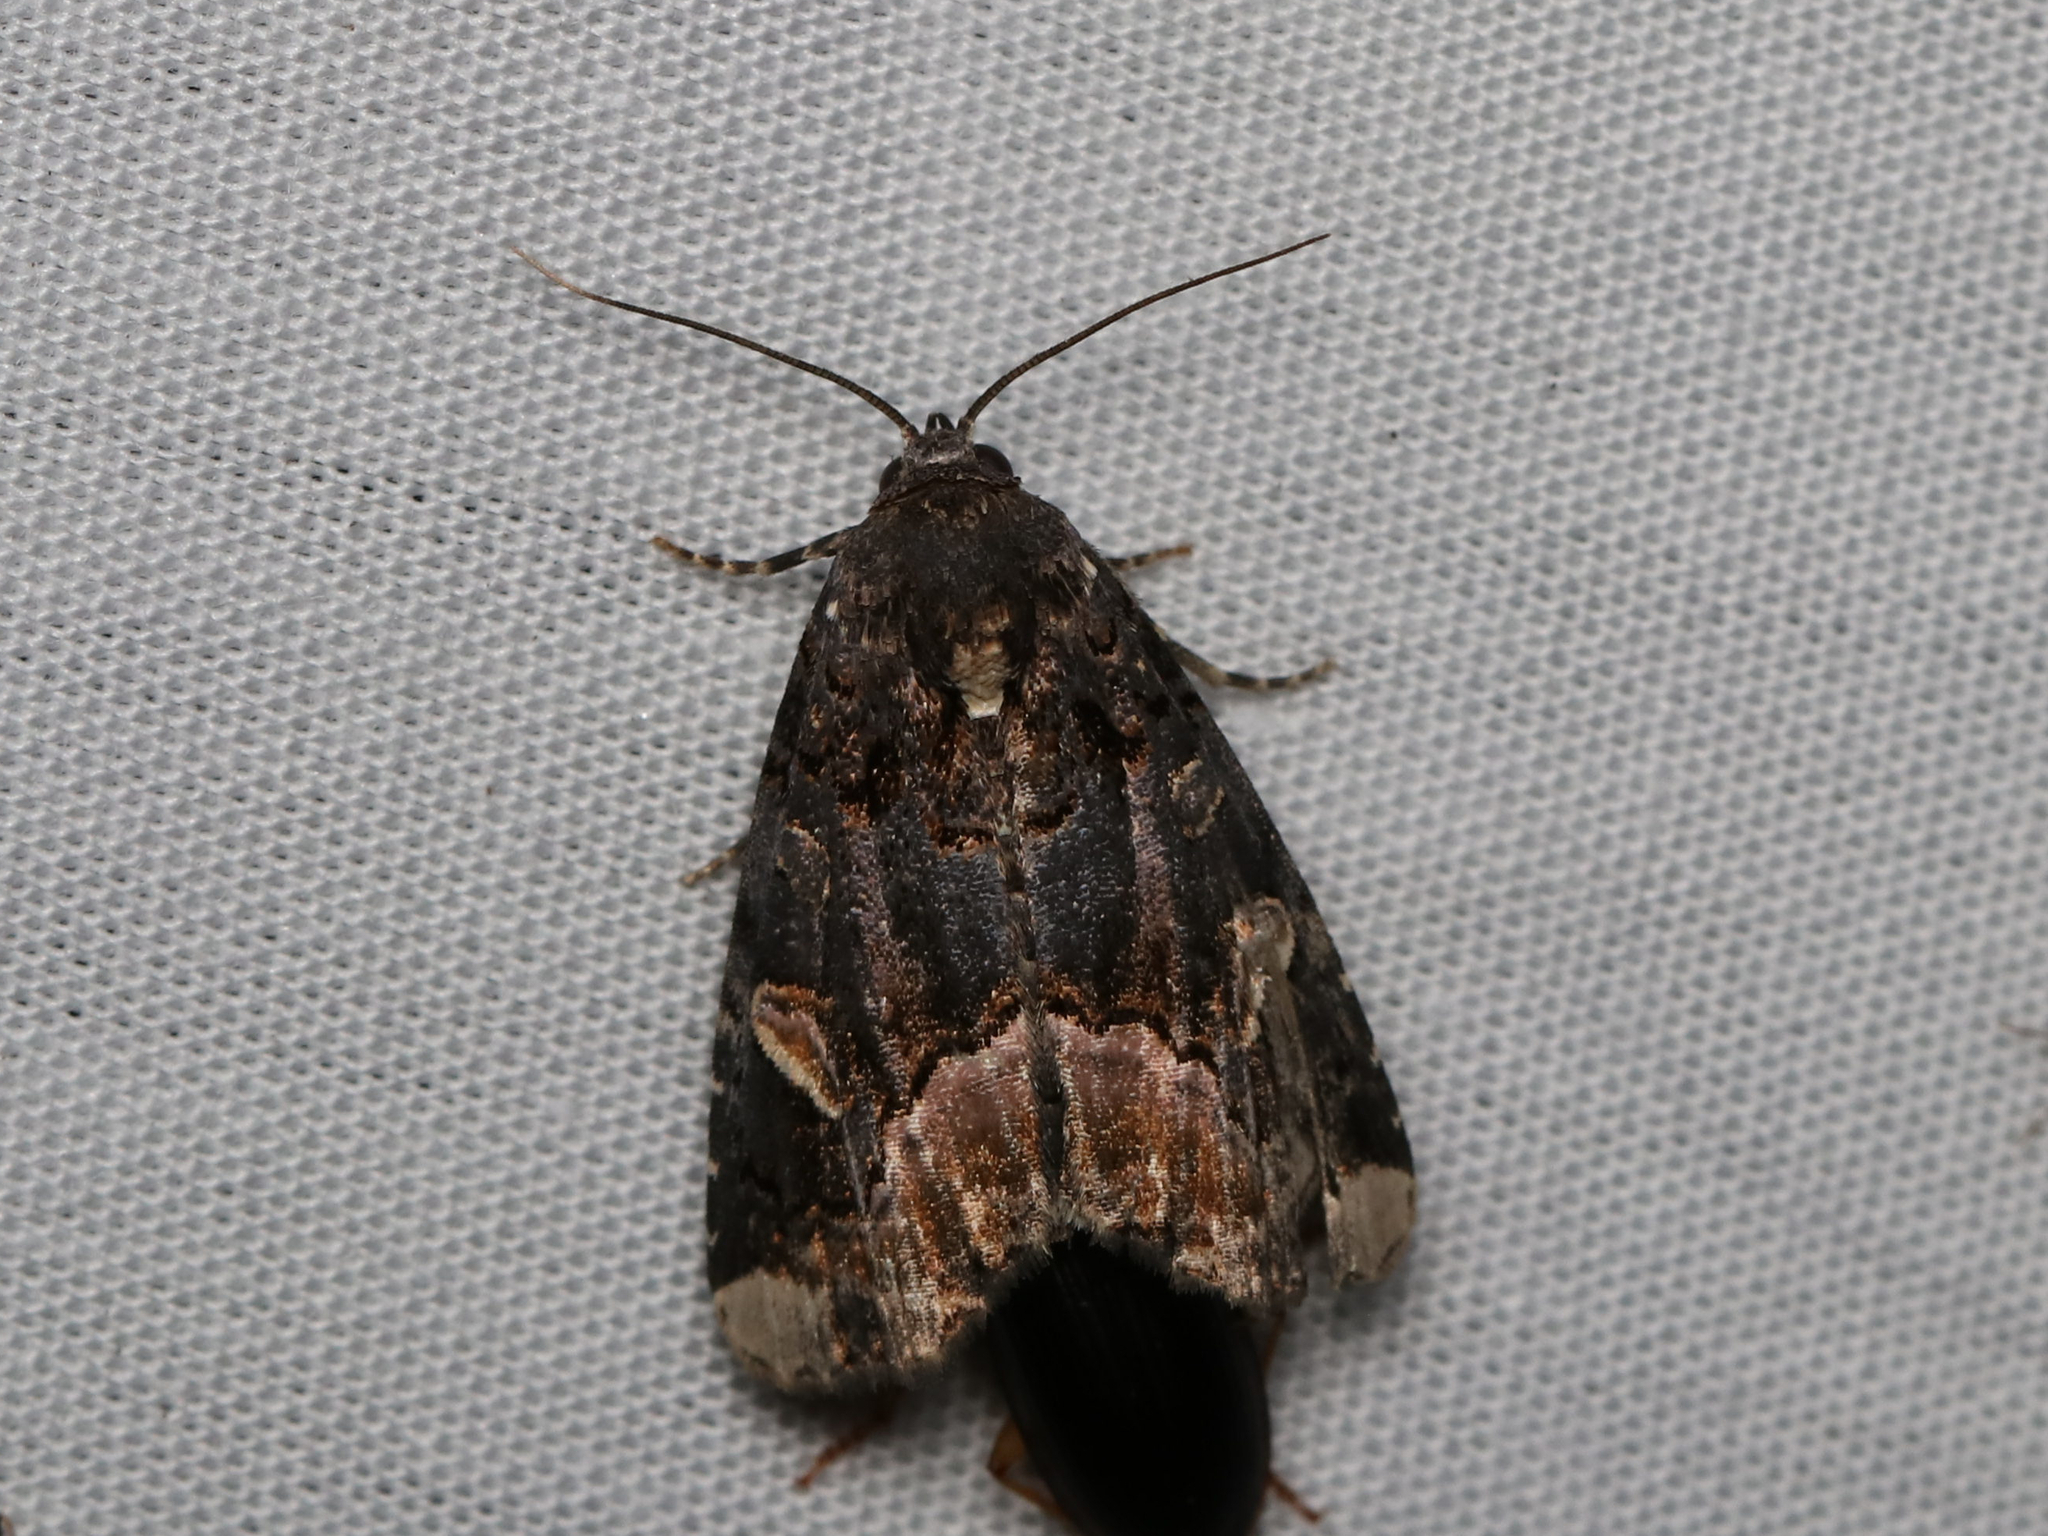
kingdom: Animalia
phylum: Arthropoda
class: Insecta
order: Lepidoptera
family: Noctuidae
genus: Homophoberia
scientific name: Homophoberia apicosa
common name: Black wedge-spot
